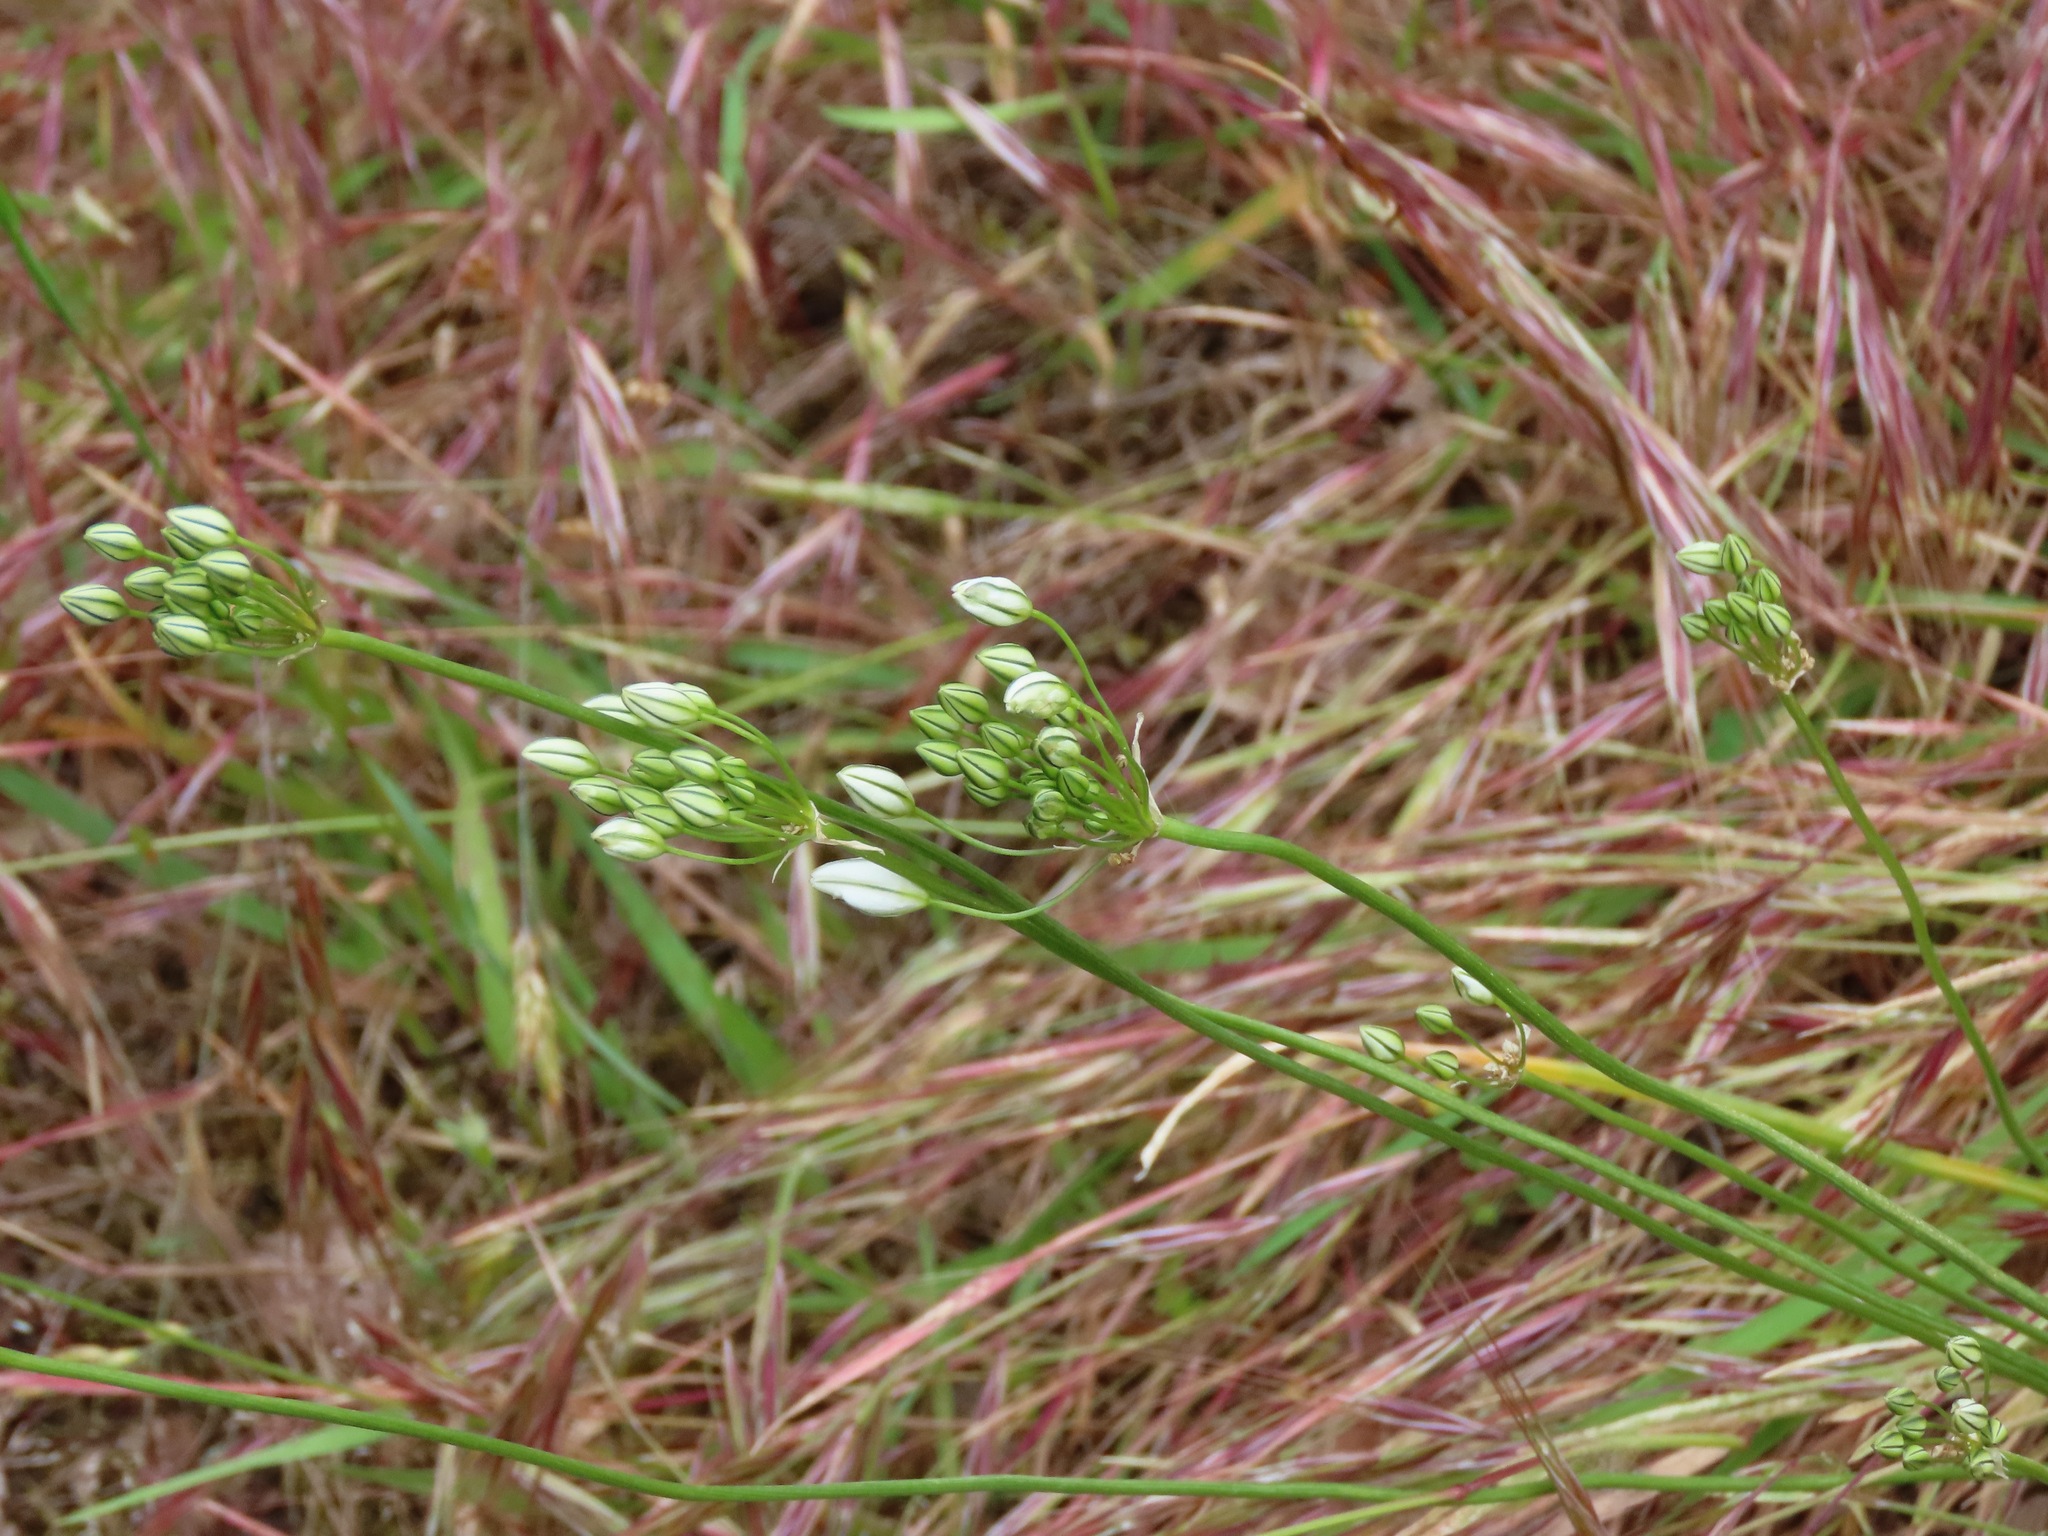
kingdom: Plantae
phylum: Tracheophyta
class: Liliopsida
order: Asparagales
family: Asparagaceae
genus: Triteleia
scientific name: Triteleia hyacinthina
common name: White brodiaea
